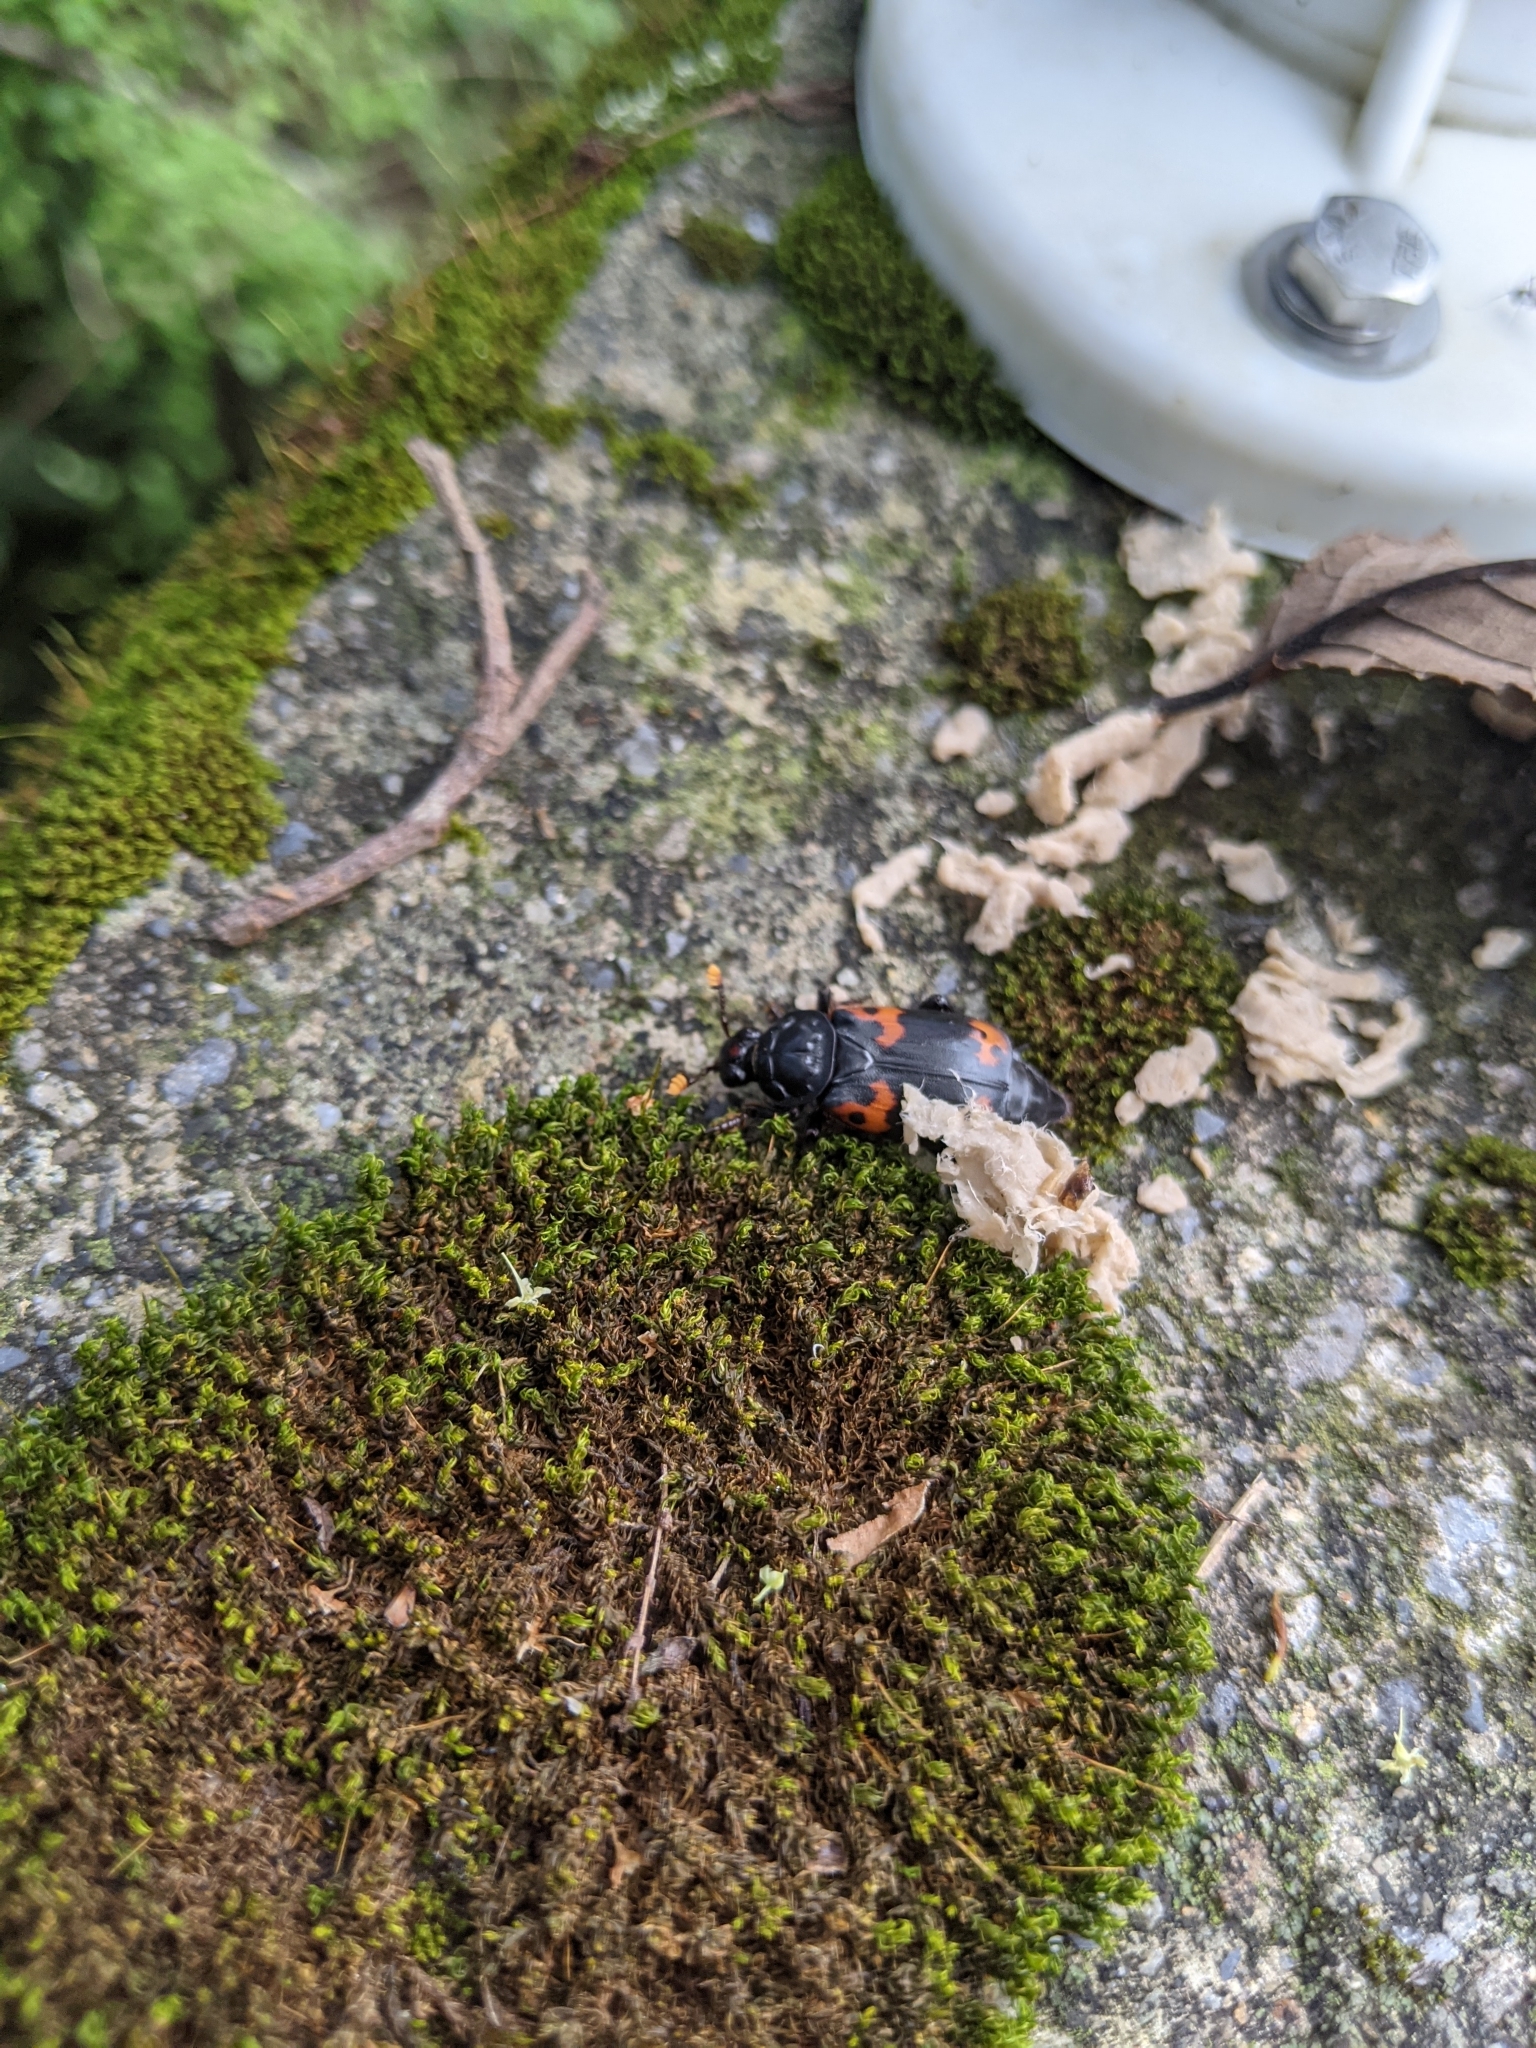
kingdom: Animalia
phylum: Arthropoda
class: Insecta
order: Coleoptera
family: Staphylinidae
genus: Nicrophorus
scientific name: Nicrophorus nepalensis
